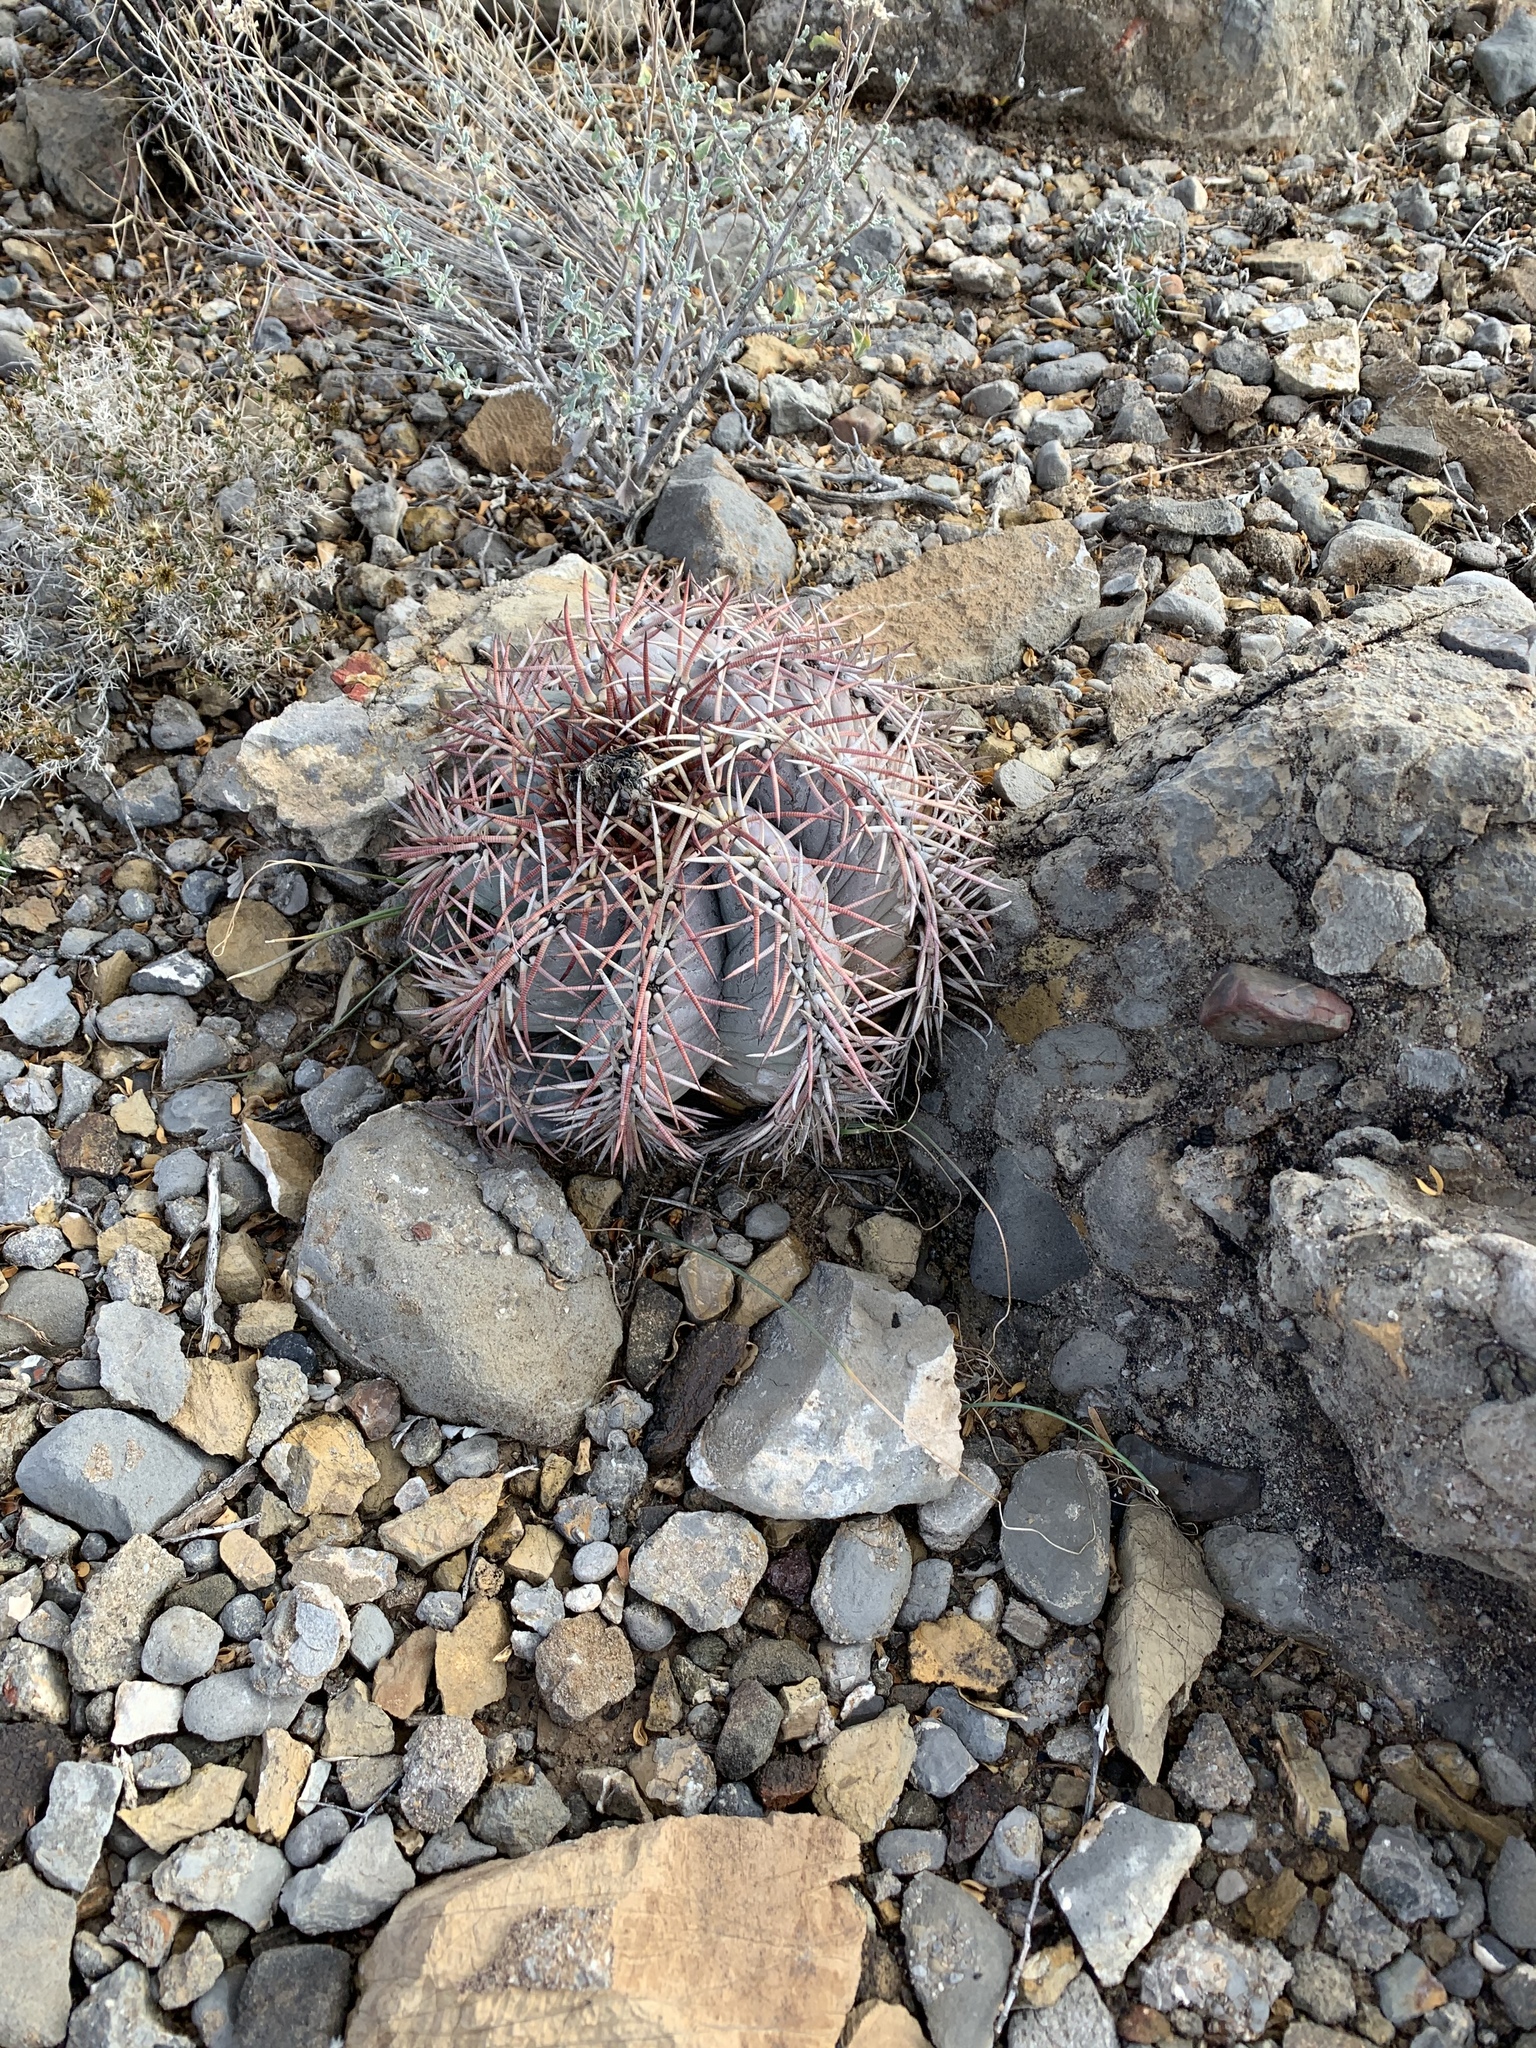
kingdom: Plantae
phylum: Tracheophyta
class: Magnoliopsida
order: Caryophyllales
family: Cactaceae
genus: Echinocactus
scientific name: Echinocactus horizonthalonius
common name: Devilshead
